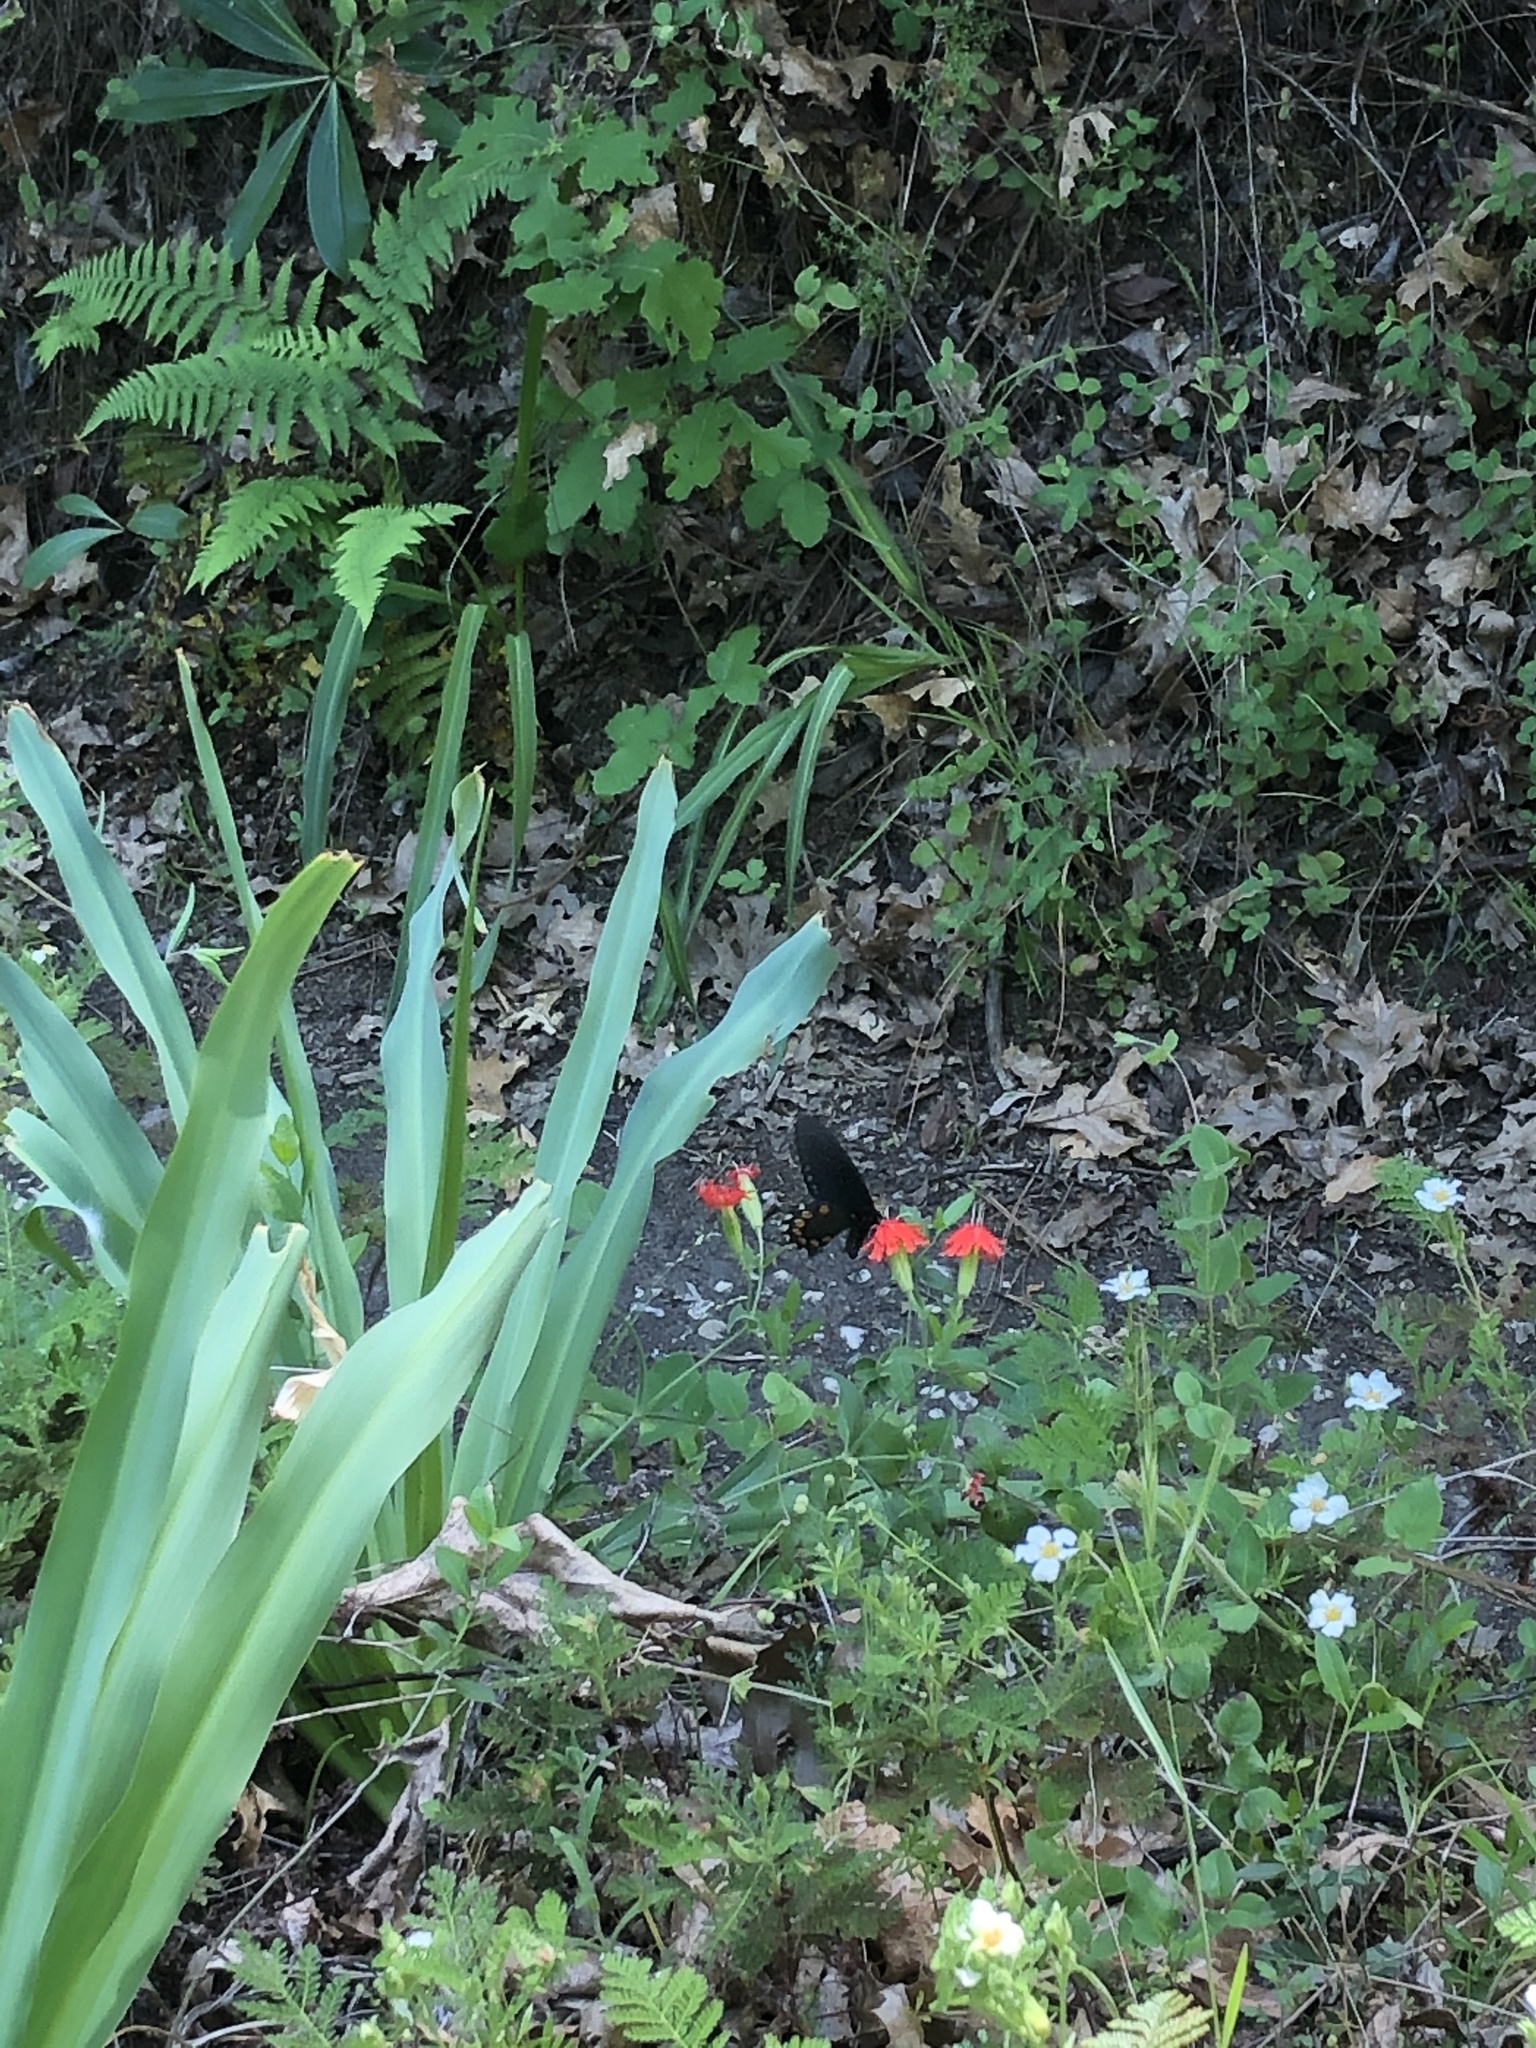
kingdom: Animalia
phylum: Arthropoda
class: Insecta
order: Lepidoptera
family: Papilionidae
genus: Battus
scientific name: Battus philenor
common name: Pipevine swallowtail
